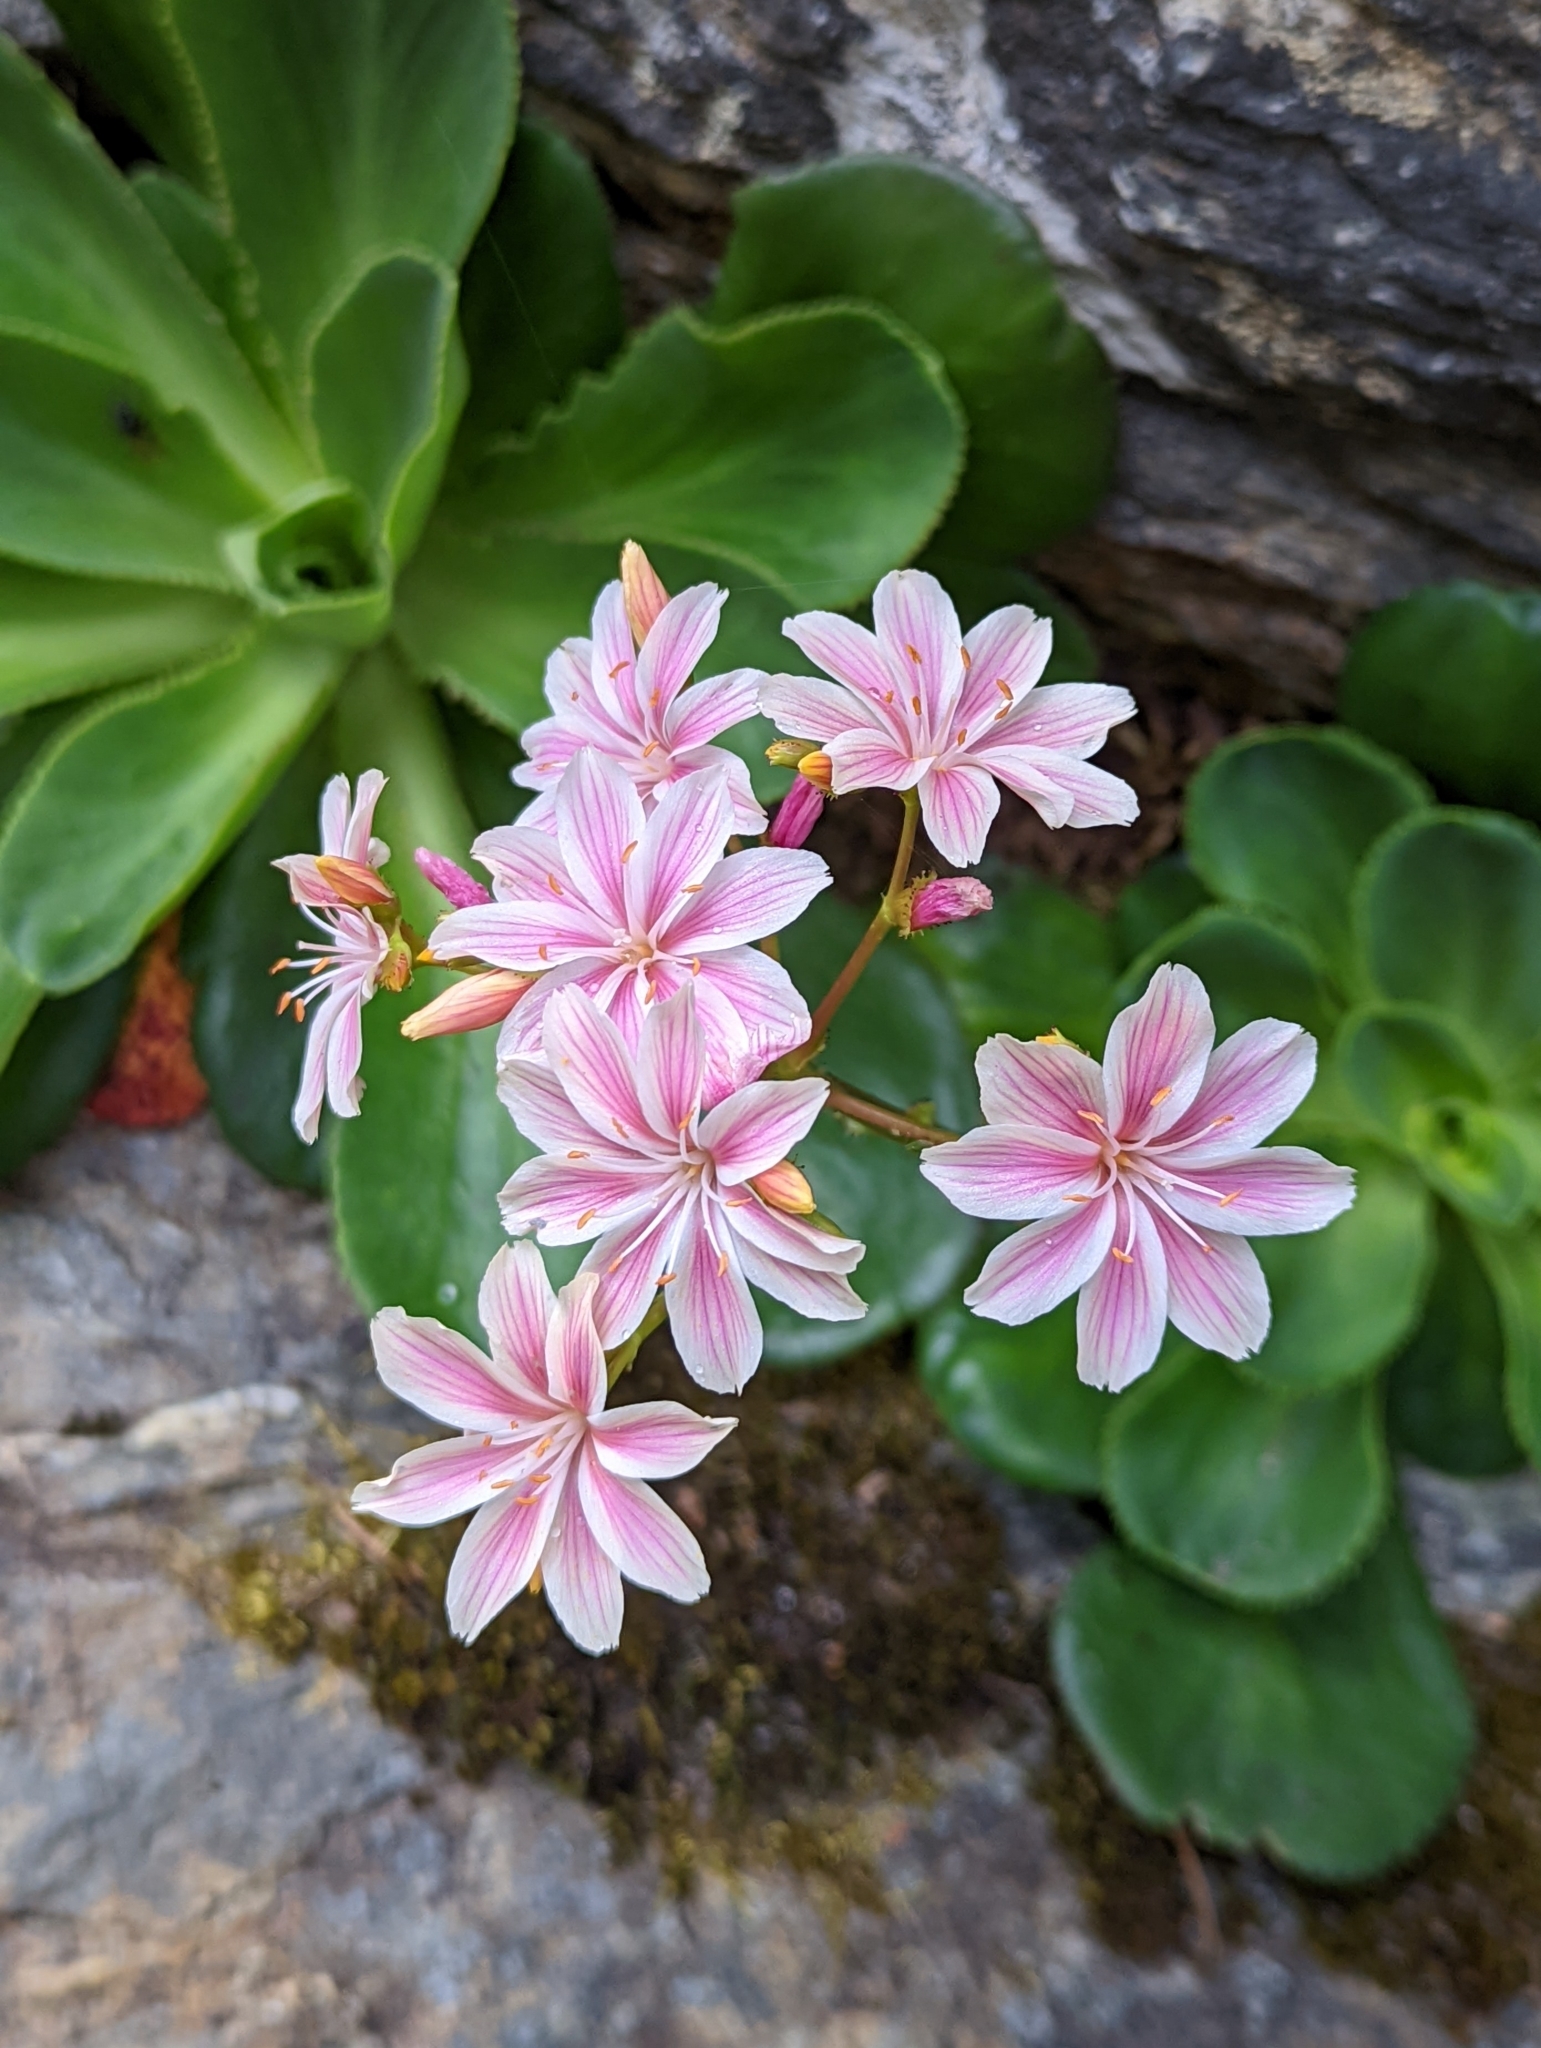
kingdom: Plantae
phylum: Tracheophyta
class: Magnoliopsida
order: Caryophyllales
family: Montiaceae
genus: Lewisia
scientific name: Lewisia cotyledon
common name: Siskiyou lewisia
